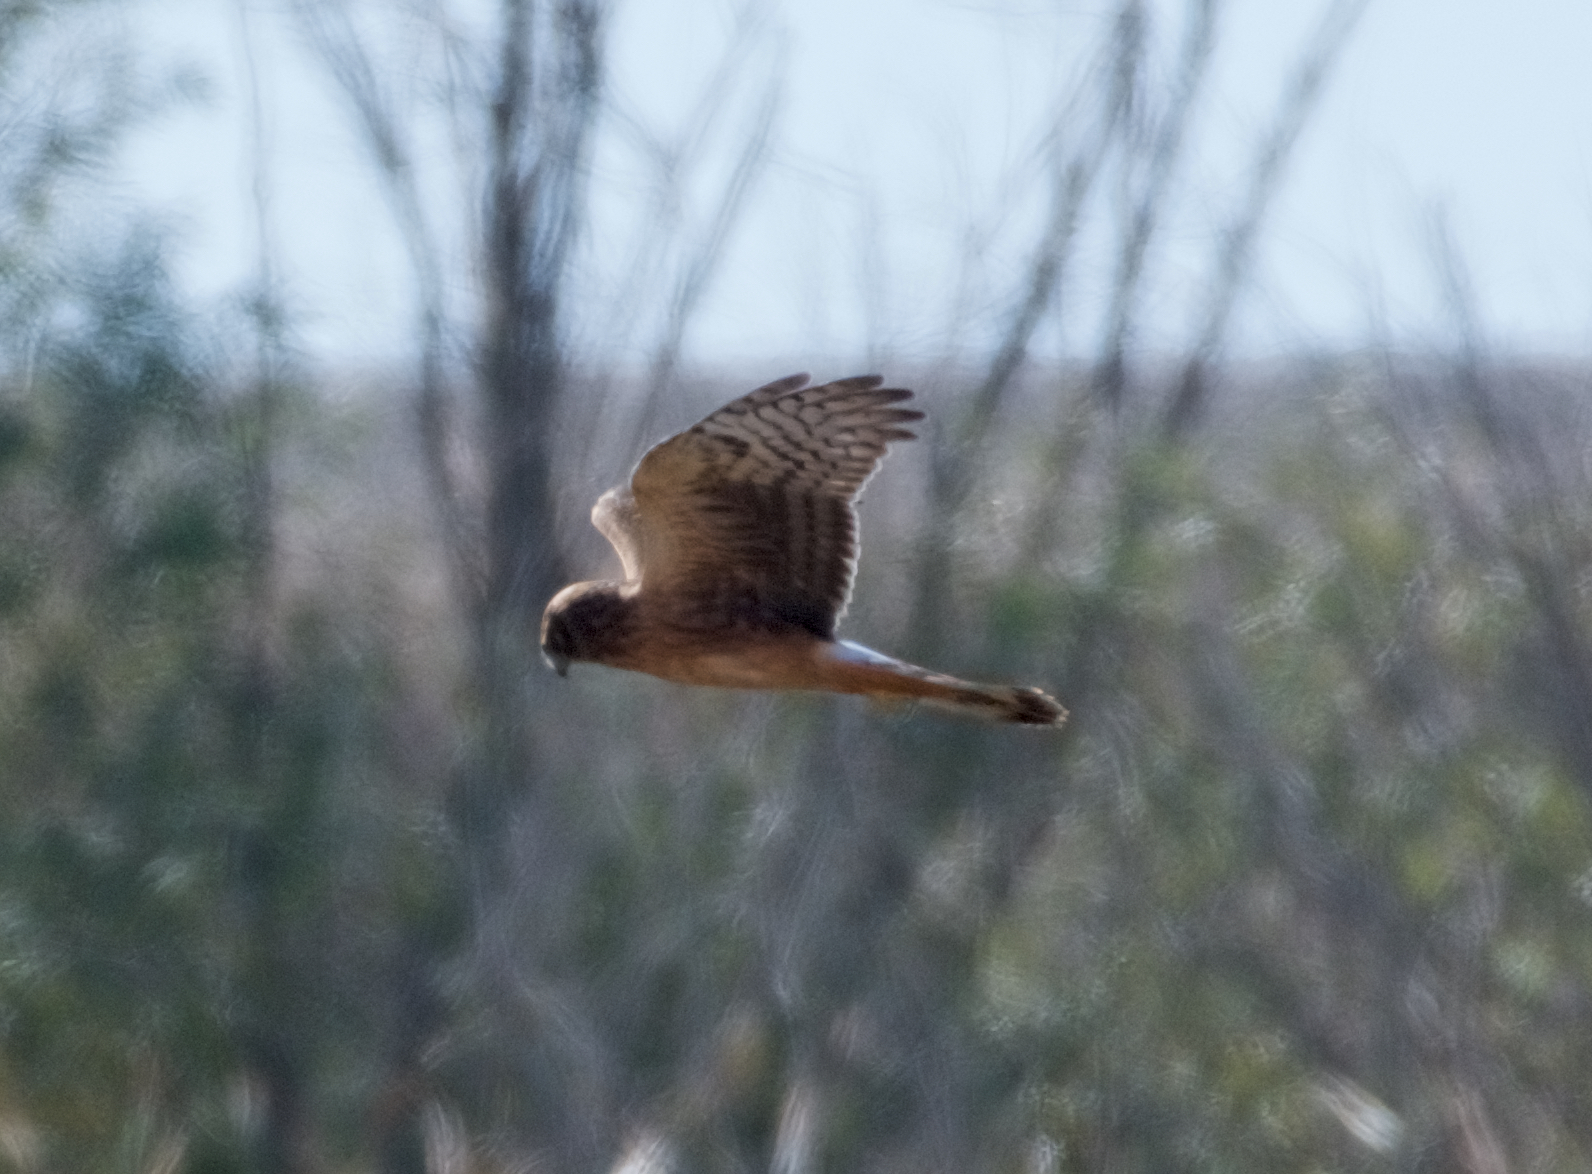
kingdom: Animalia
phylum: Chordata
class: Aves
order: Accipitriformes
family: Accipitridae
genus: Circus
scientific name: Circus cyaneus
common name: Hen harrier
